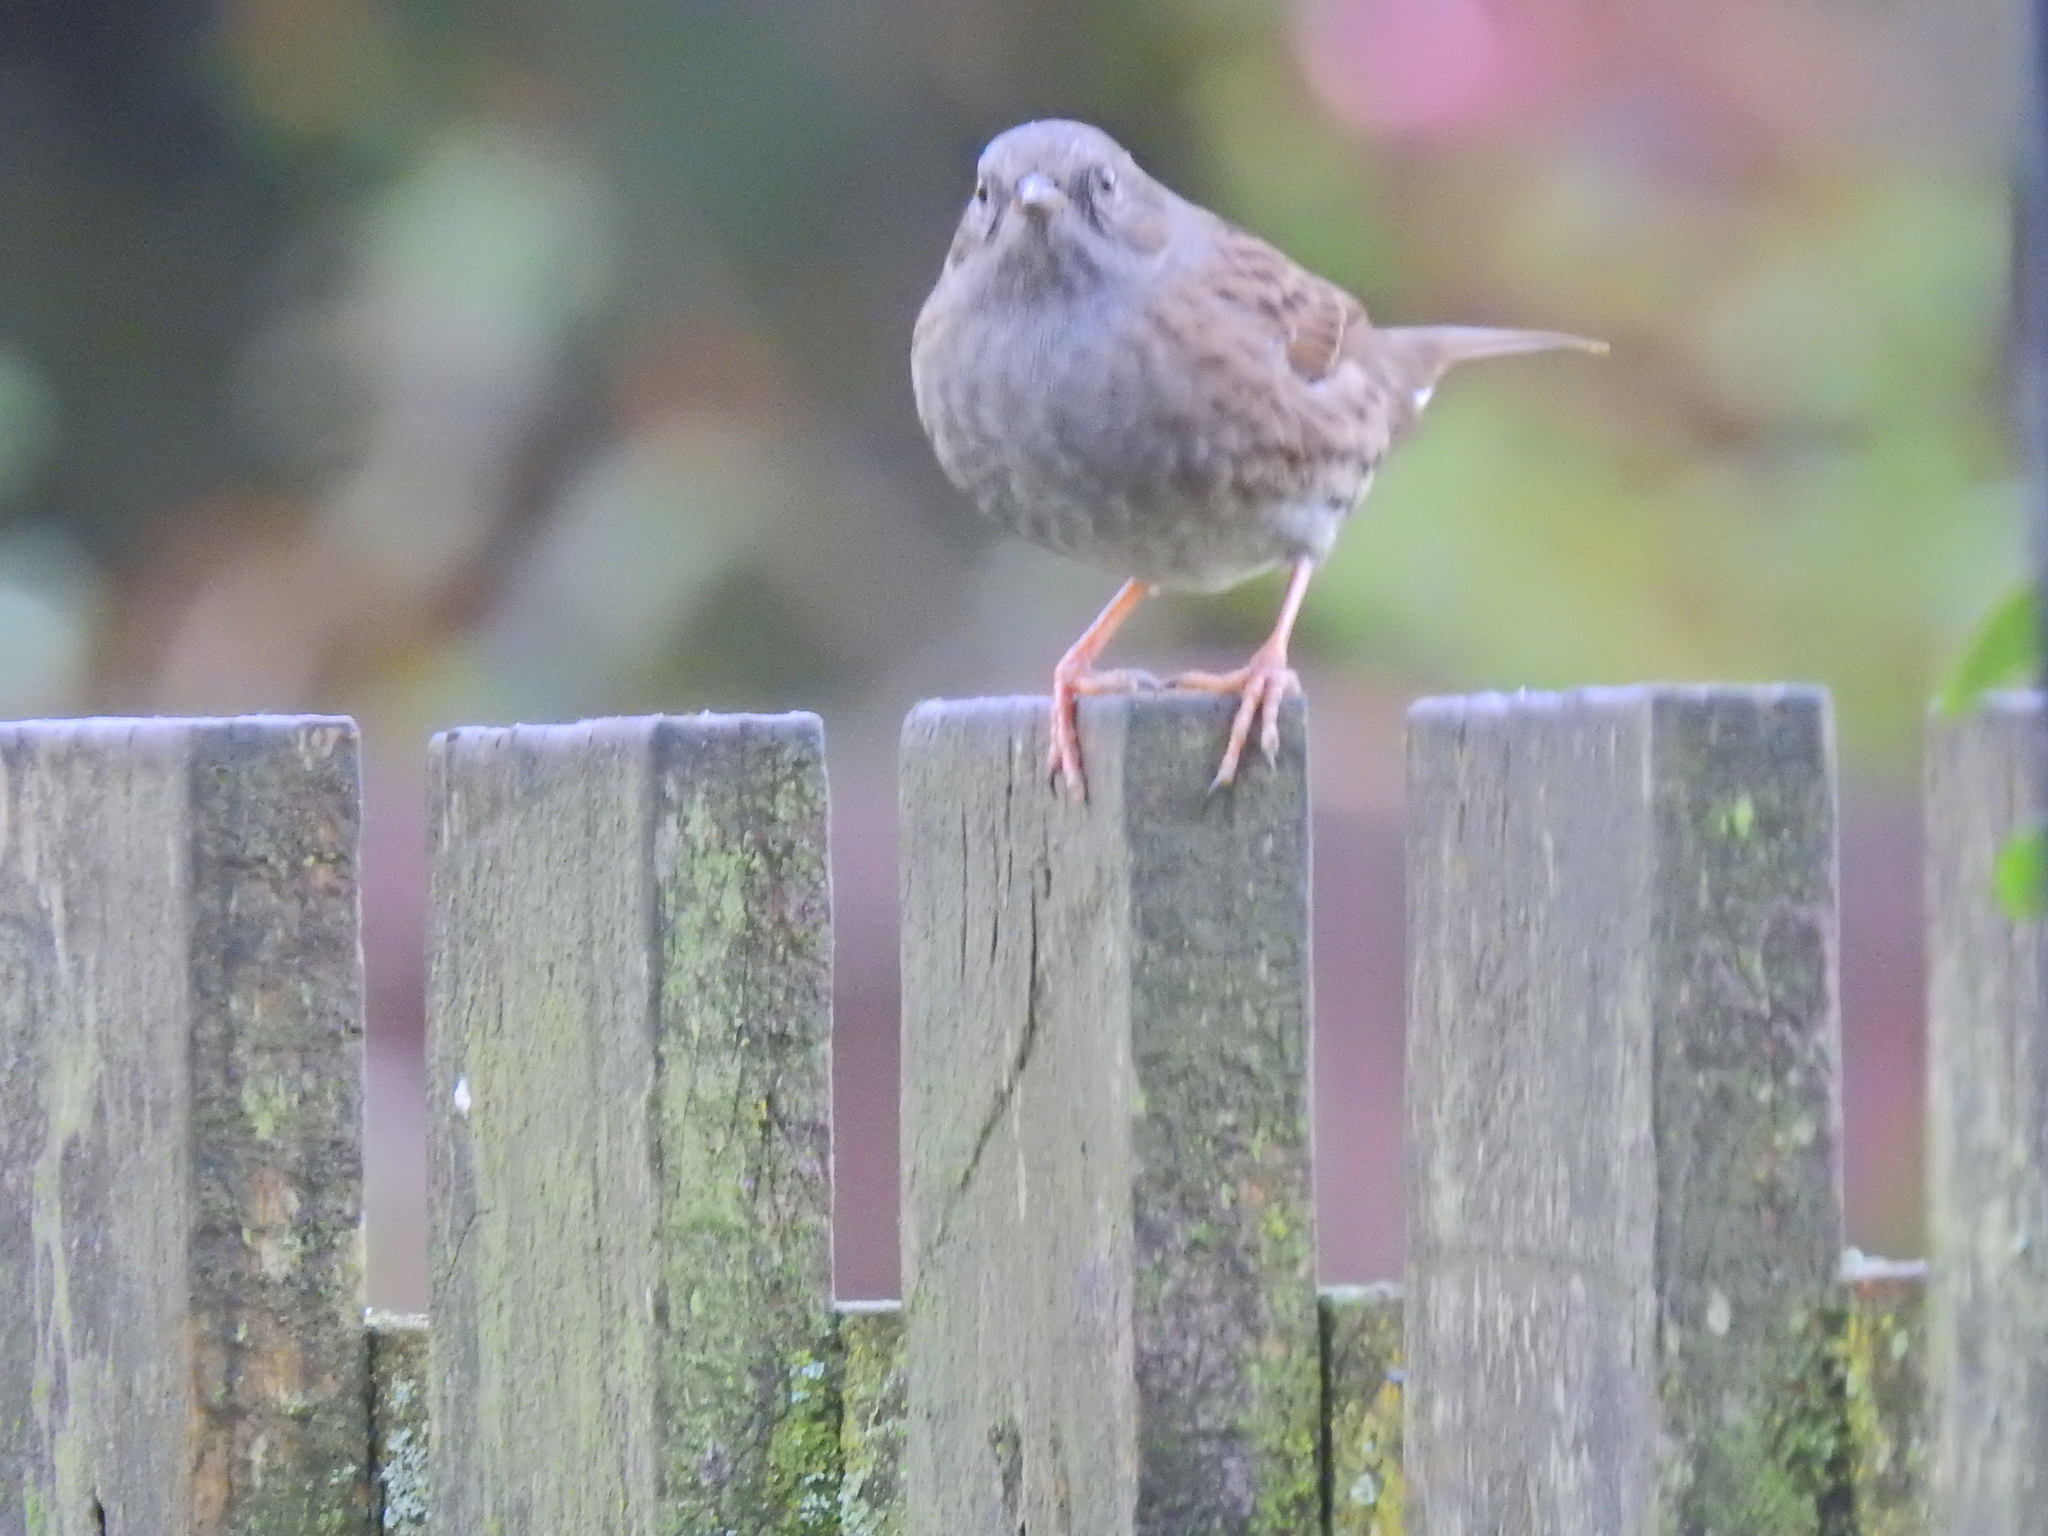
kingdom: Animalia
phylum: Chordata
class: Aves
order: Passeriformes
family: Prunellidae
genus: Prunella
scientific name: Prunella modularis
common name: Dunnock
